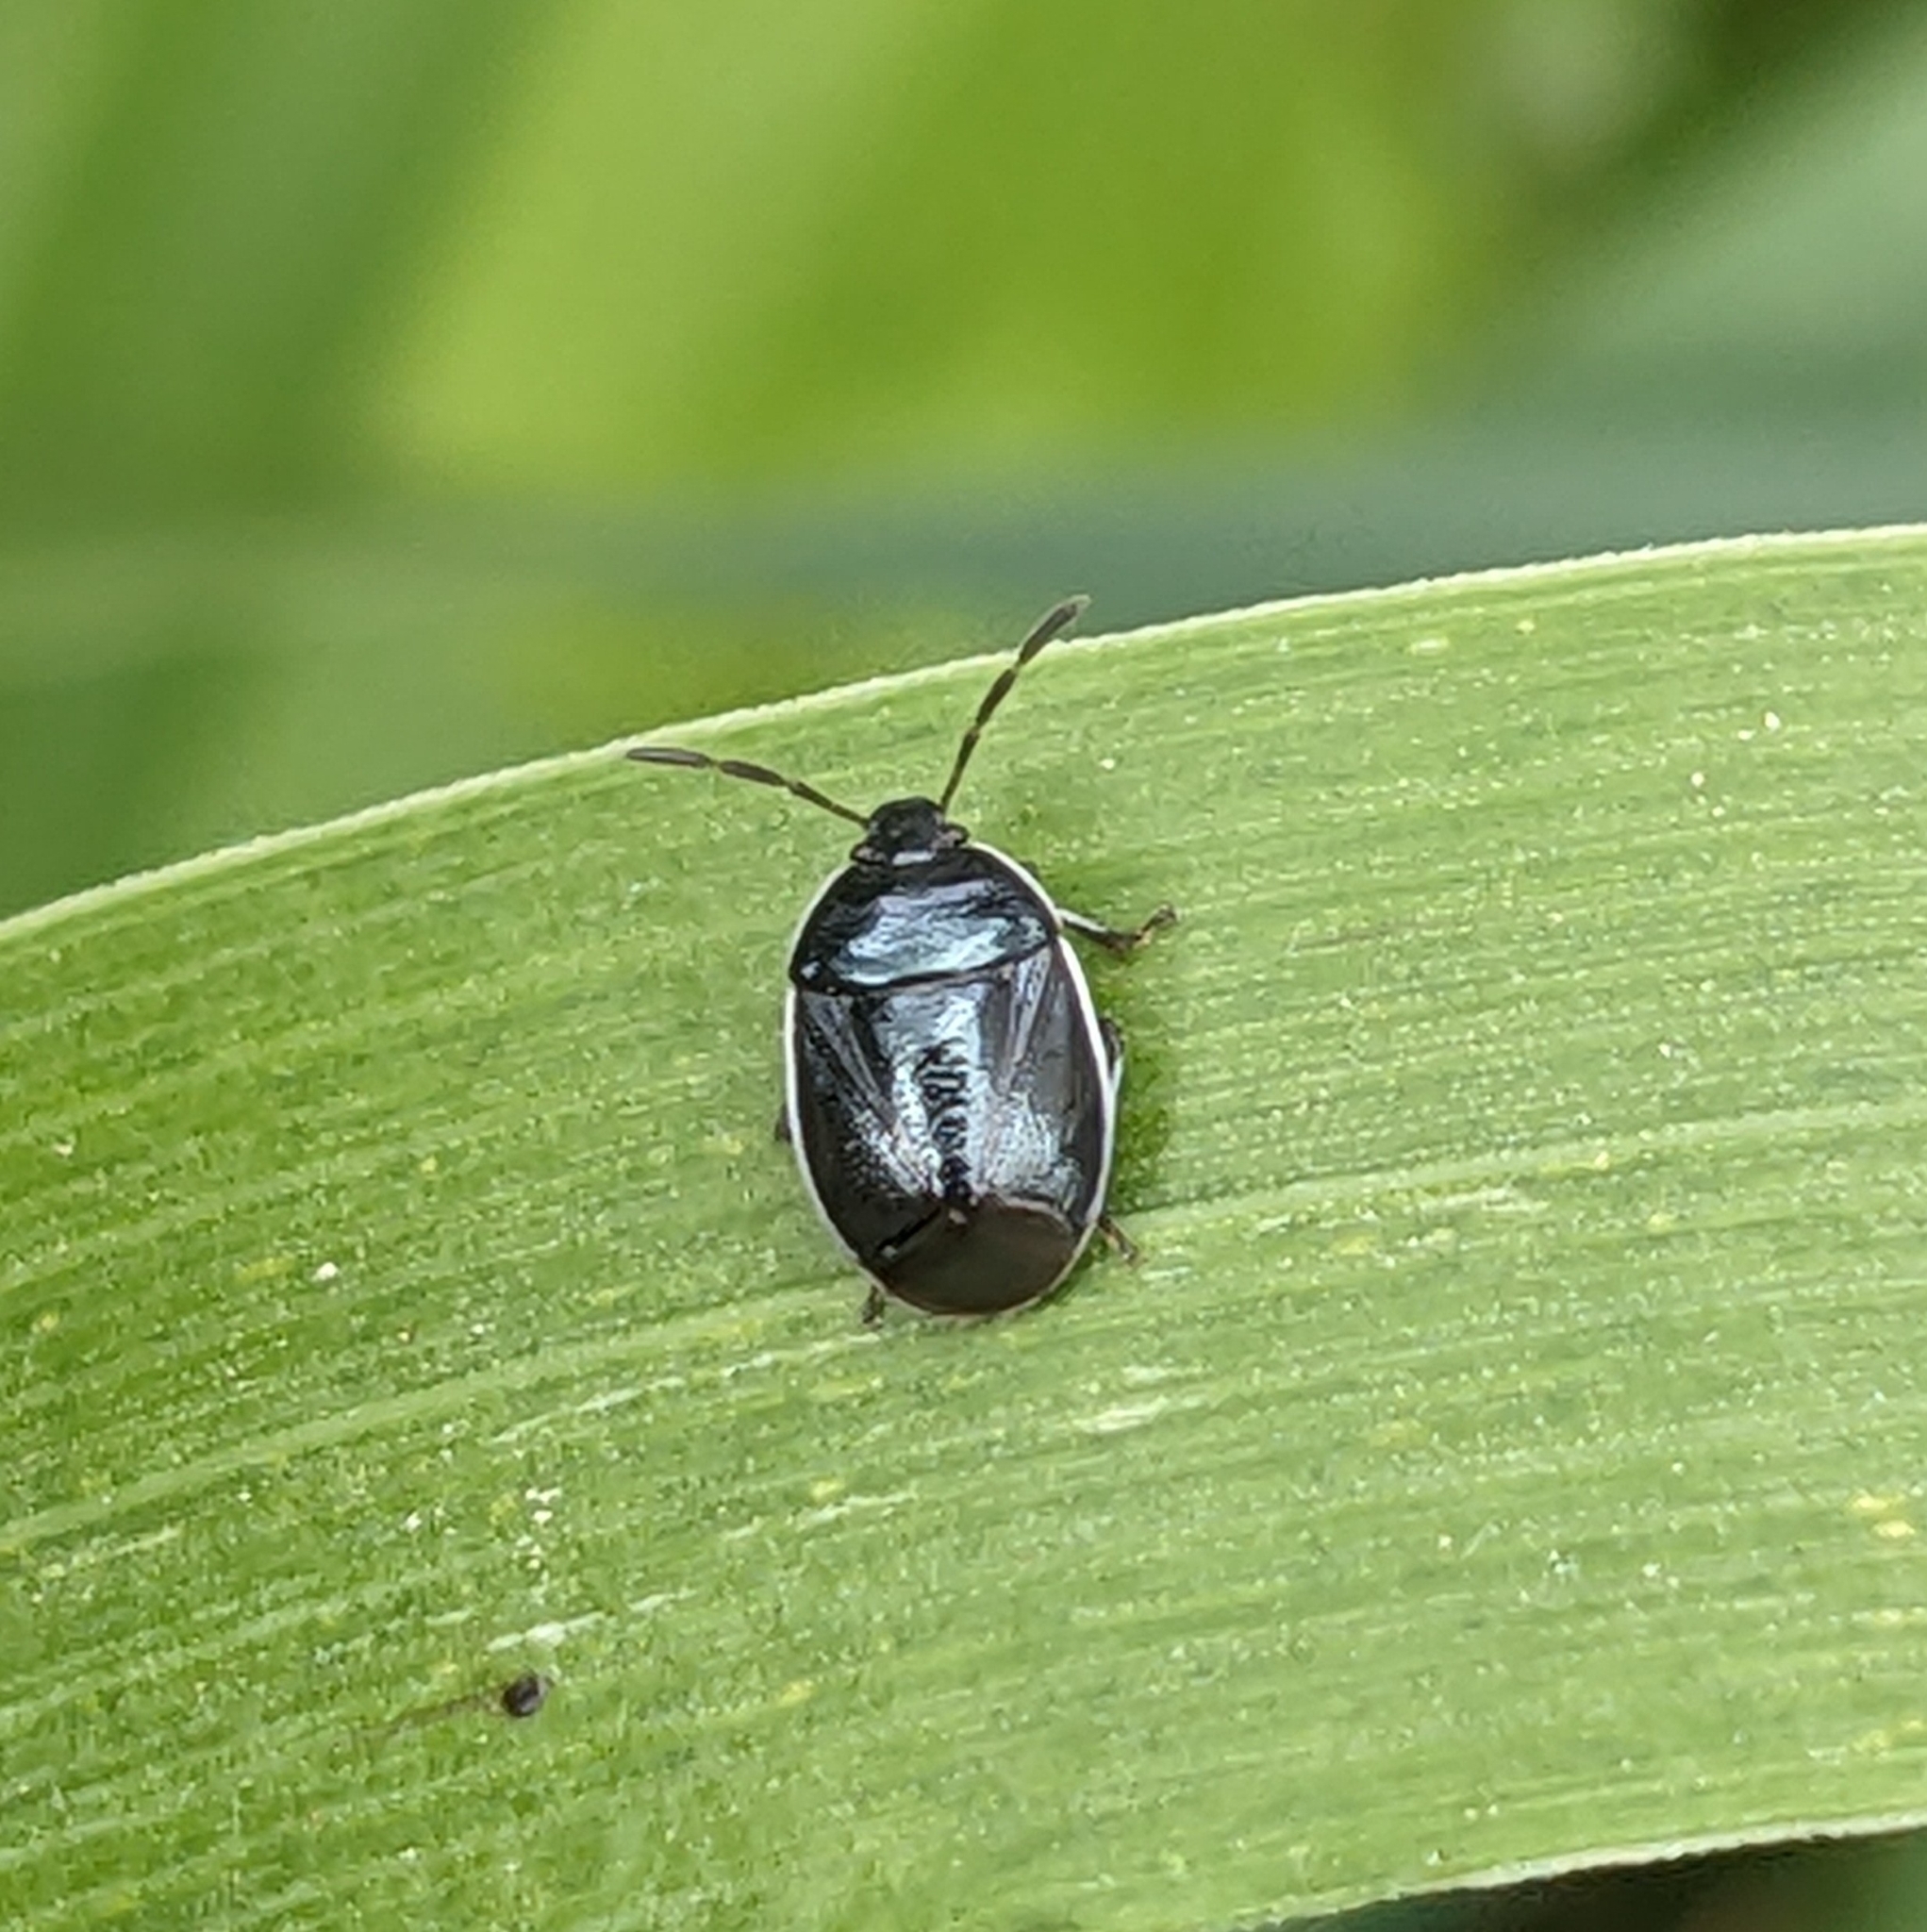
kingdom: Animalia
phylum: Arthropoda
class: Insecta
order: Hemiptera
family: Cydnidae
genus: Sehirus
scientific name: Sehirus cinctus
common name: White-margined burrower bug
